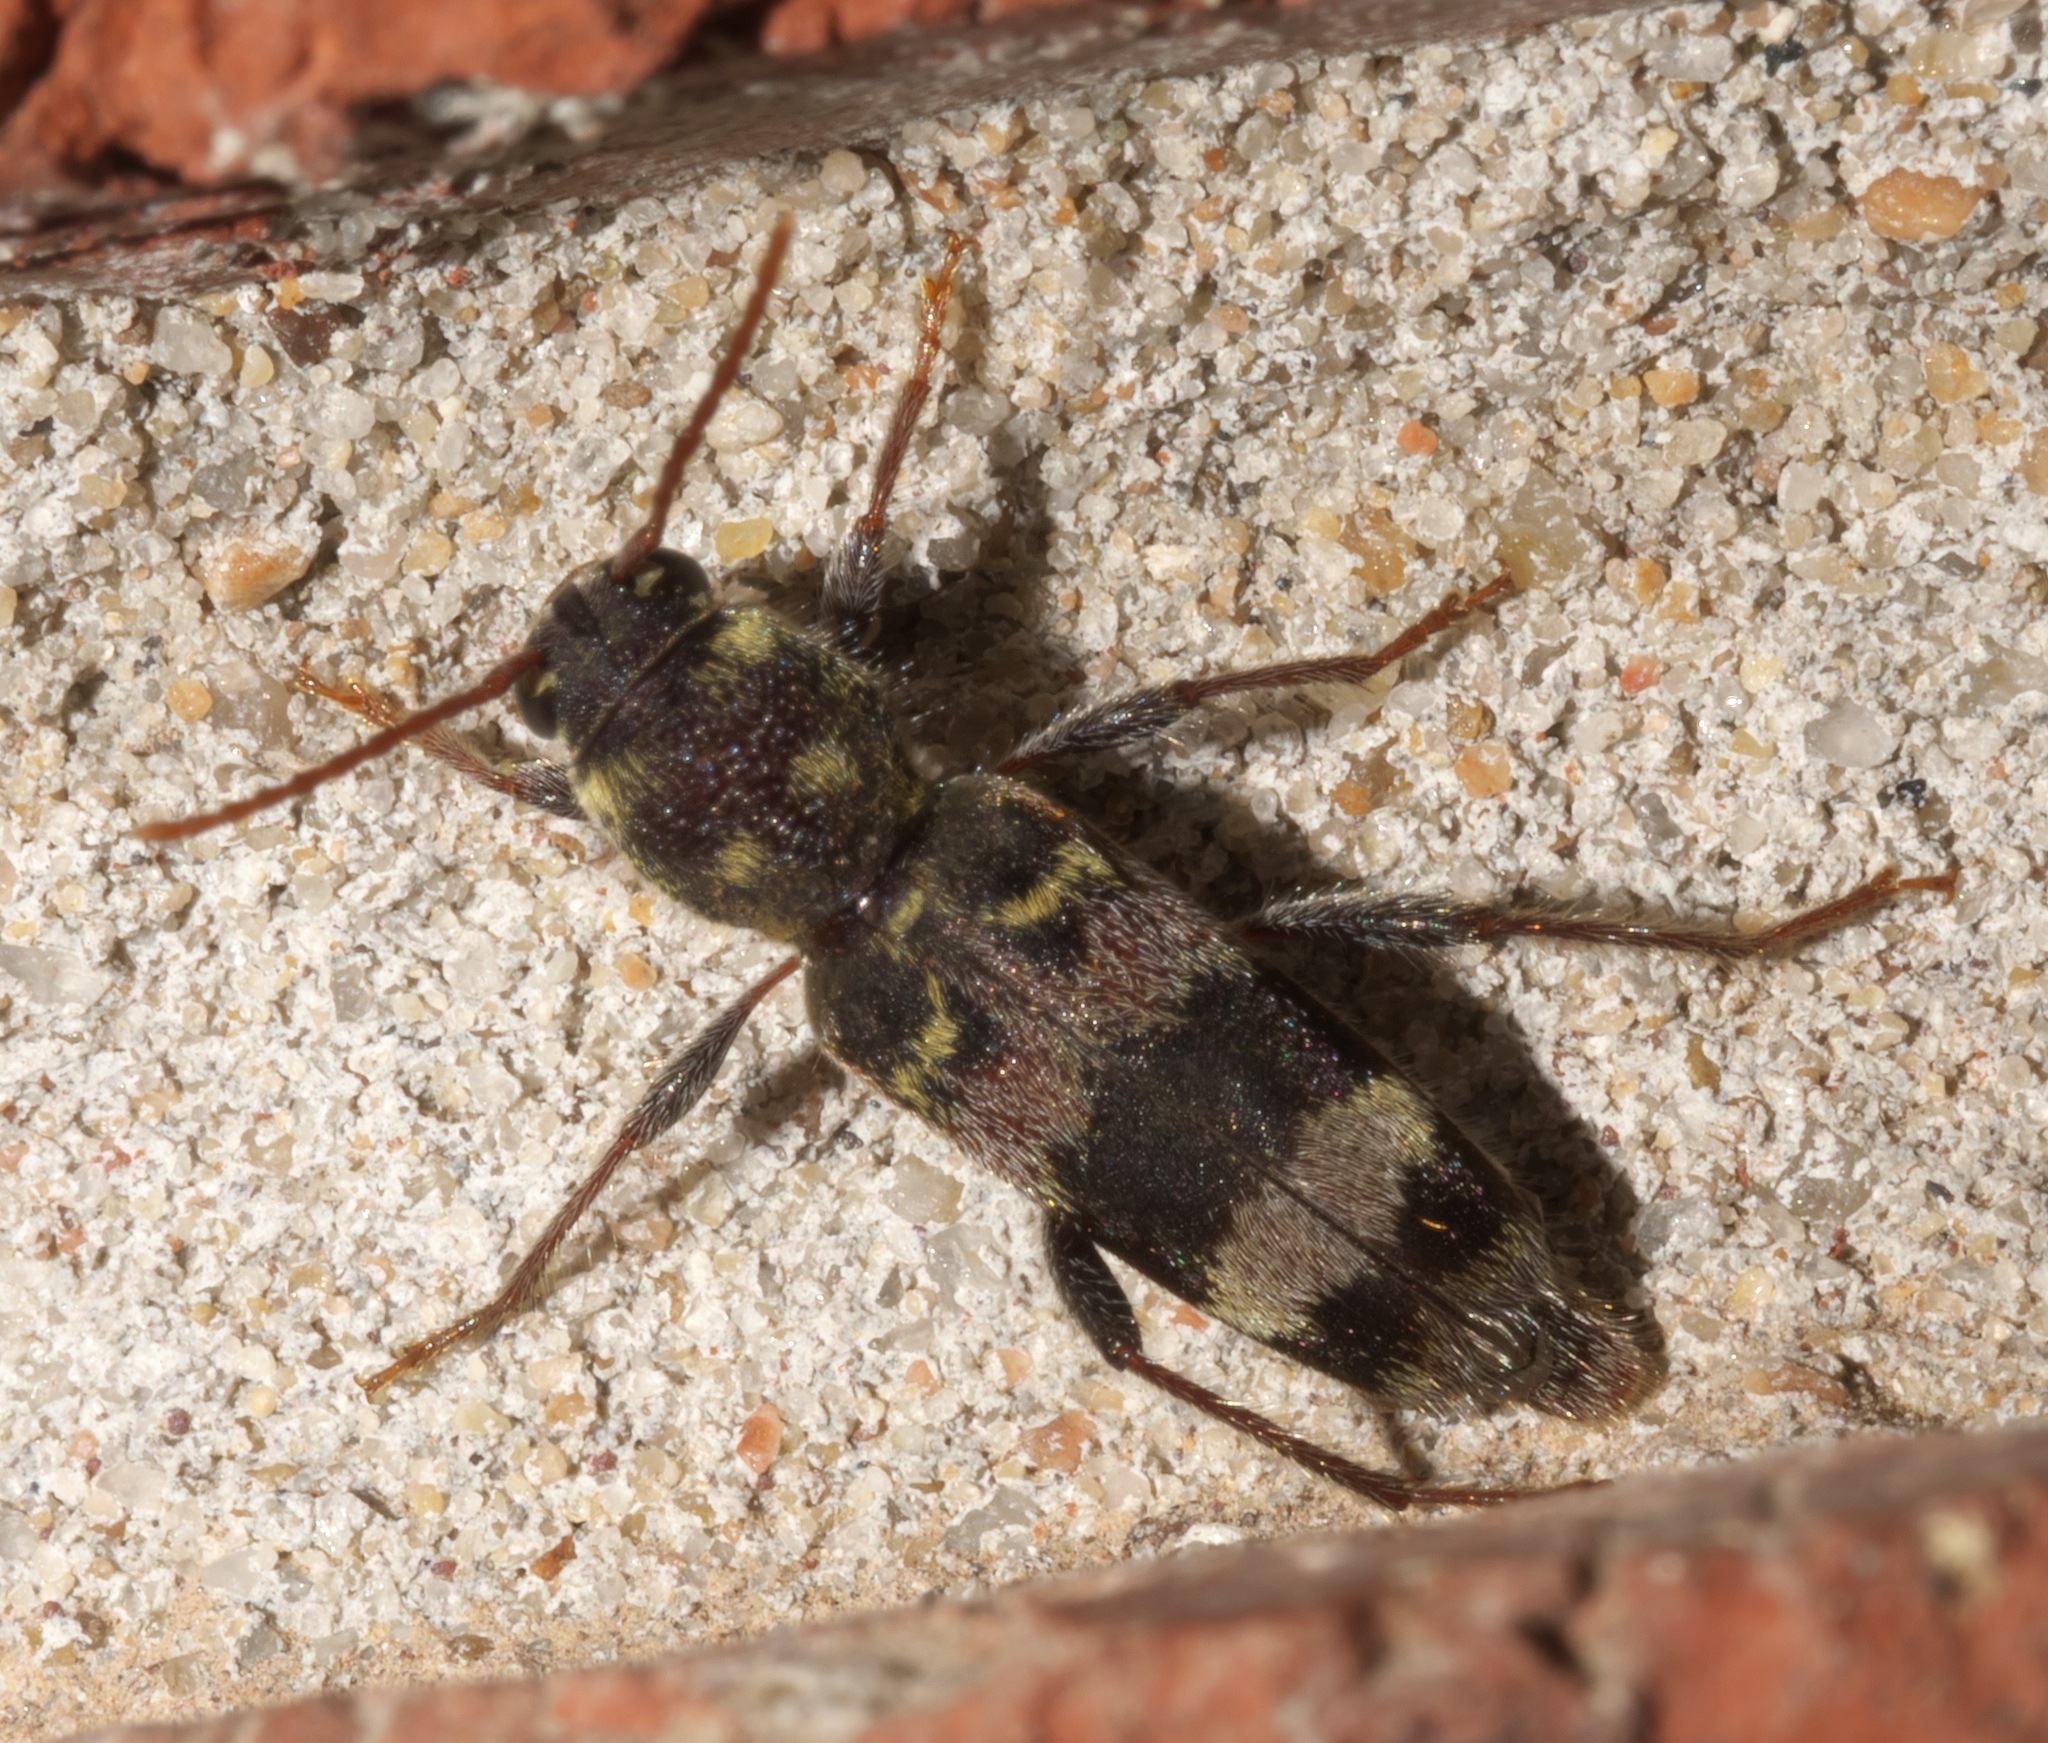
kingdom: Animalia
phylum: Arthropoda
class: Insecta
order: Coleoptera
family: Cerambycidae
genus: Xylotrechus
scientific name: Xylotrechus colonus
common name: Long-horned beetle
